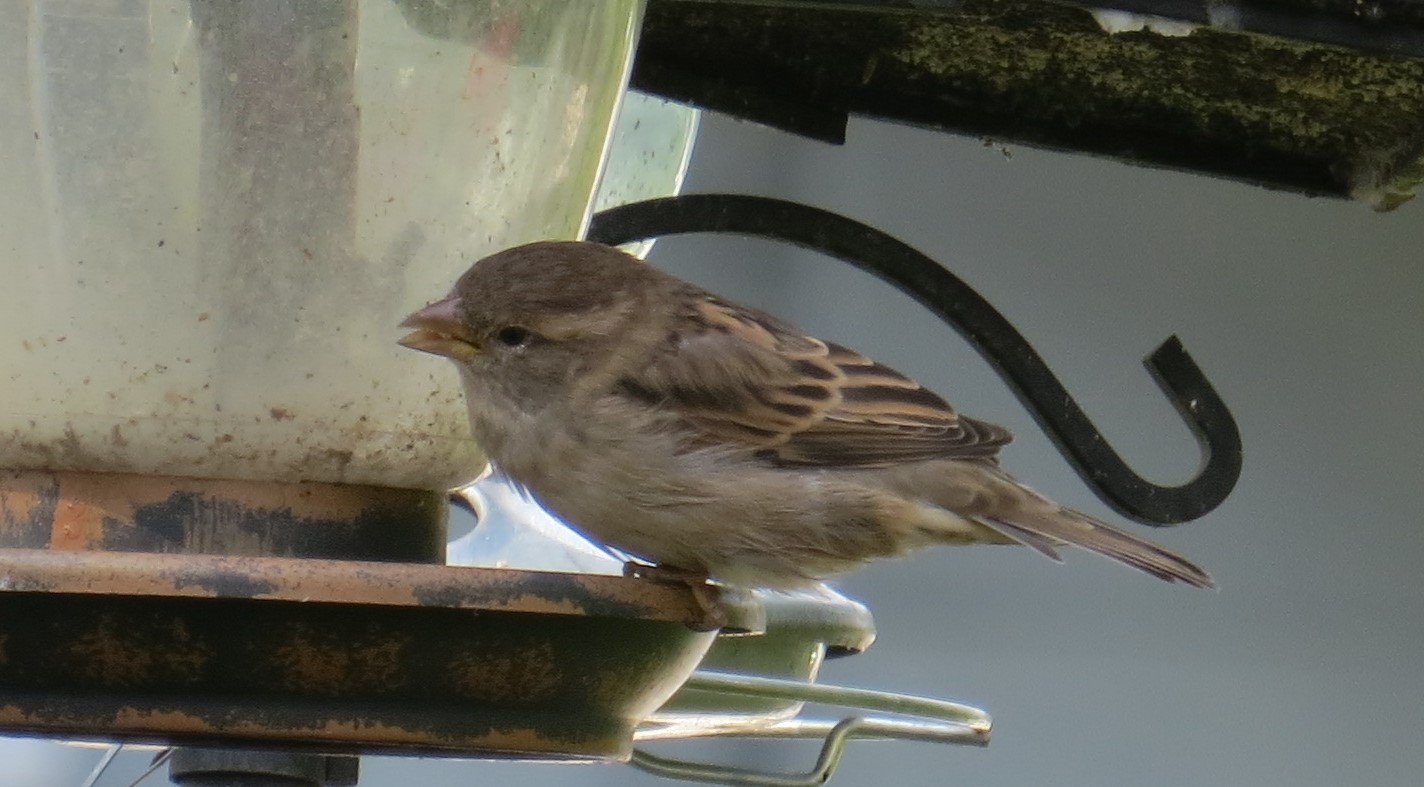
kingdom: Animalia
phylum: Chordata
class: Aves
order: Passeriformes
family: Passeridae
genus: Passer
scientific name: Passer domesticus
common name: House sparrow
